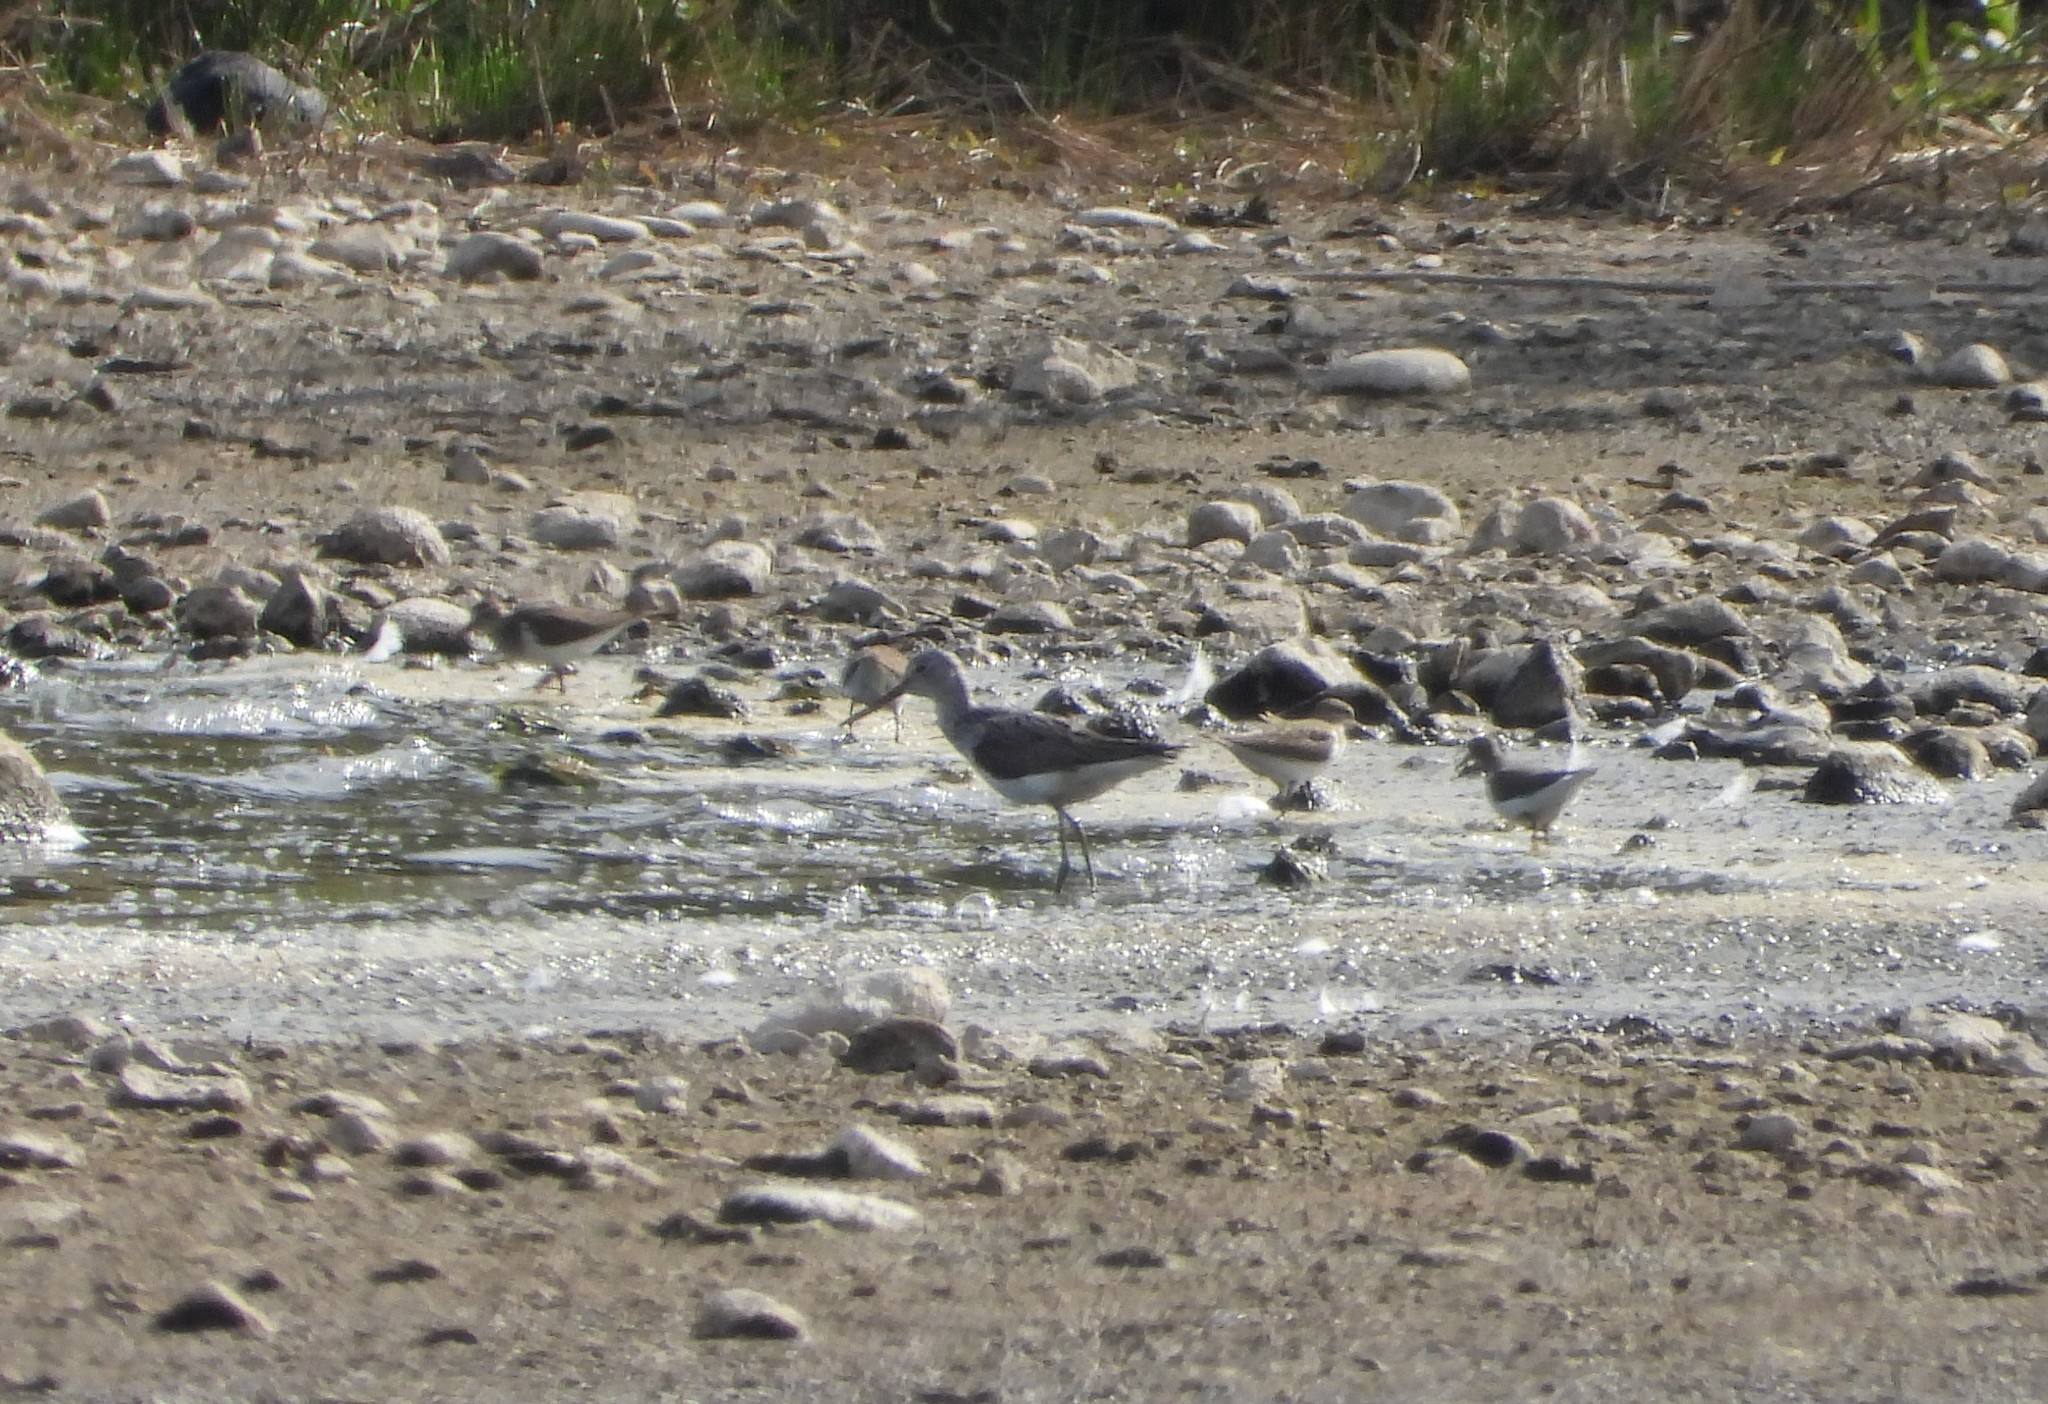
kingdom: Animalia
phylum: Chordata
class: Aves
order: Charadriiformes
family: Scolopacidae
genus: Tringa
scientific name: Tringa nebularia
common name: Common greenshank
